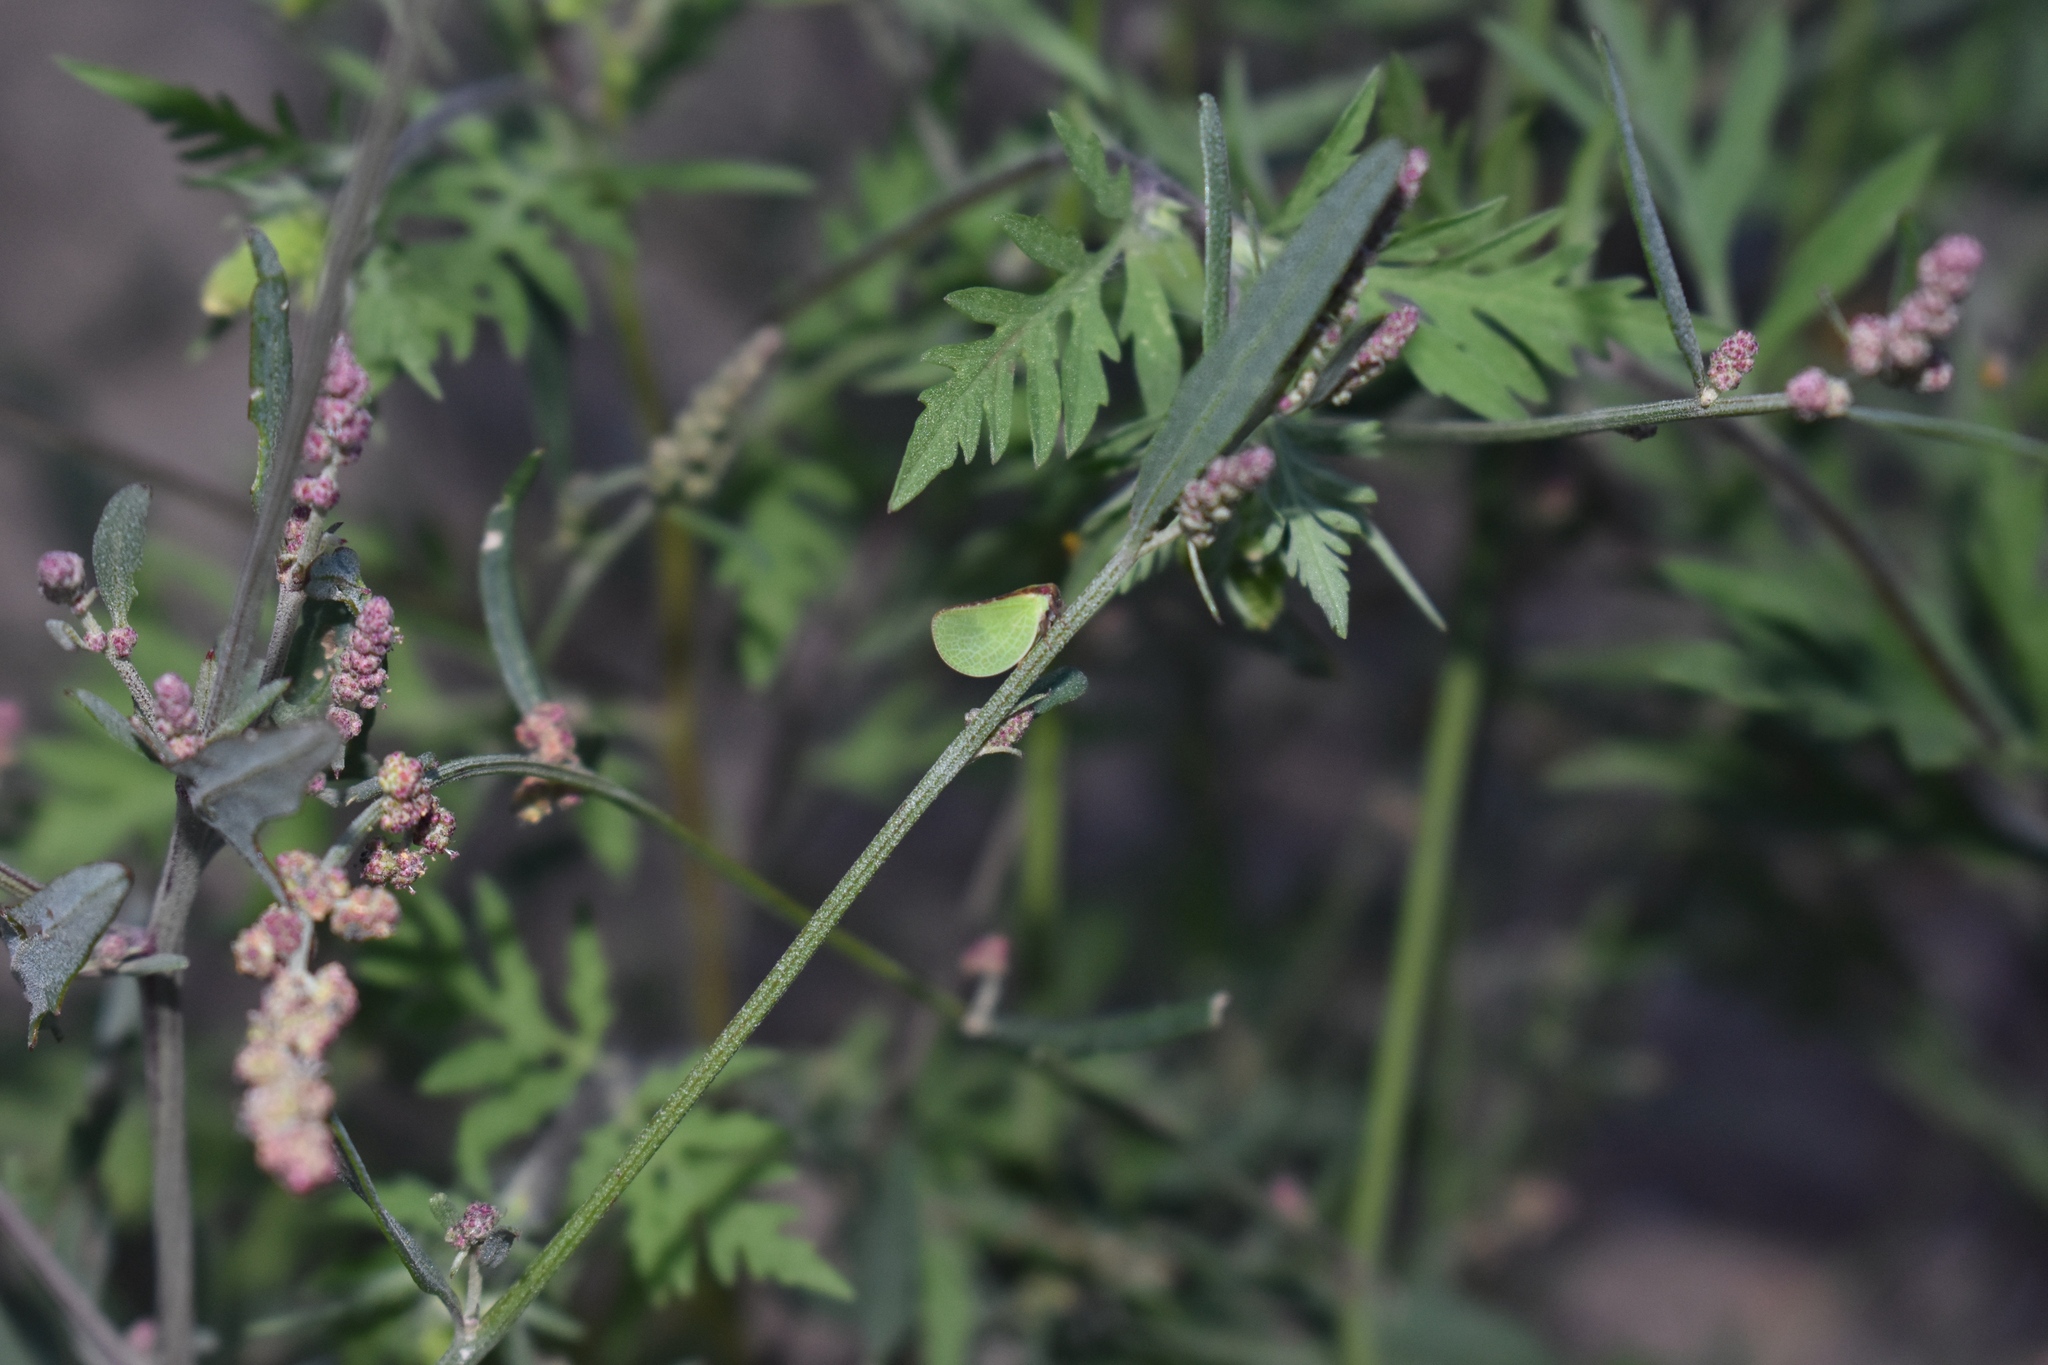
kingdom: Animalia
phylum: Arthropoda
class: Insecta
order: Hemiptera
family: Acanaloniidae
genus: Acanalonia
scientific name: Acanalonia bivittata
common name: Two-striped planthopper
